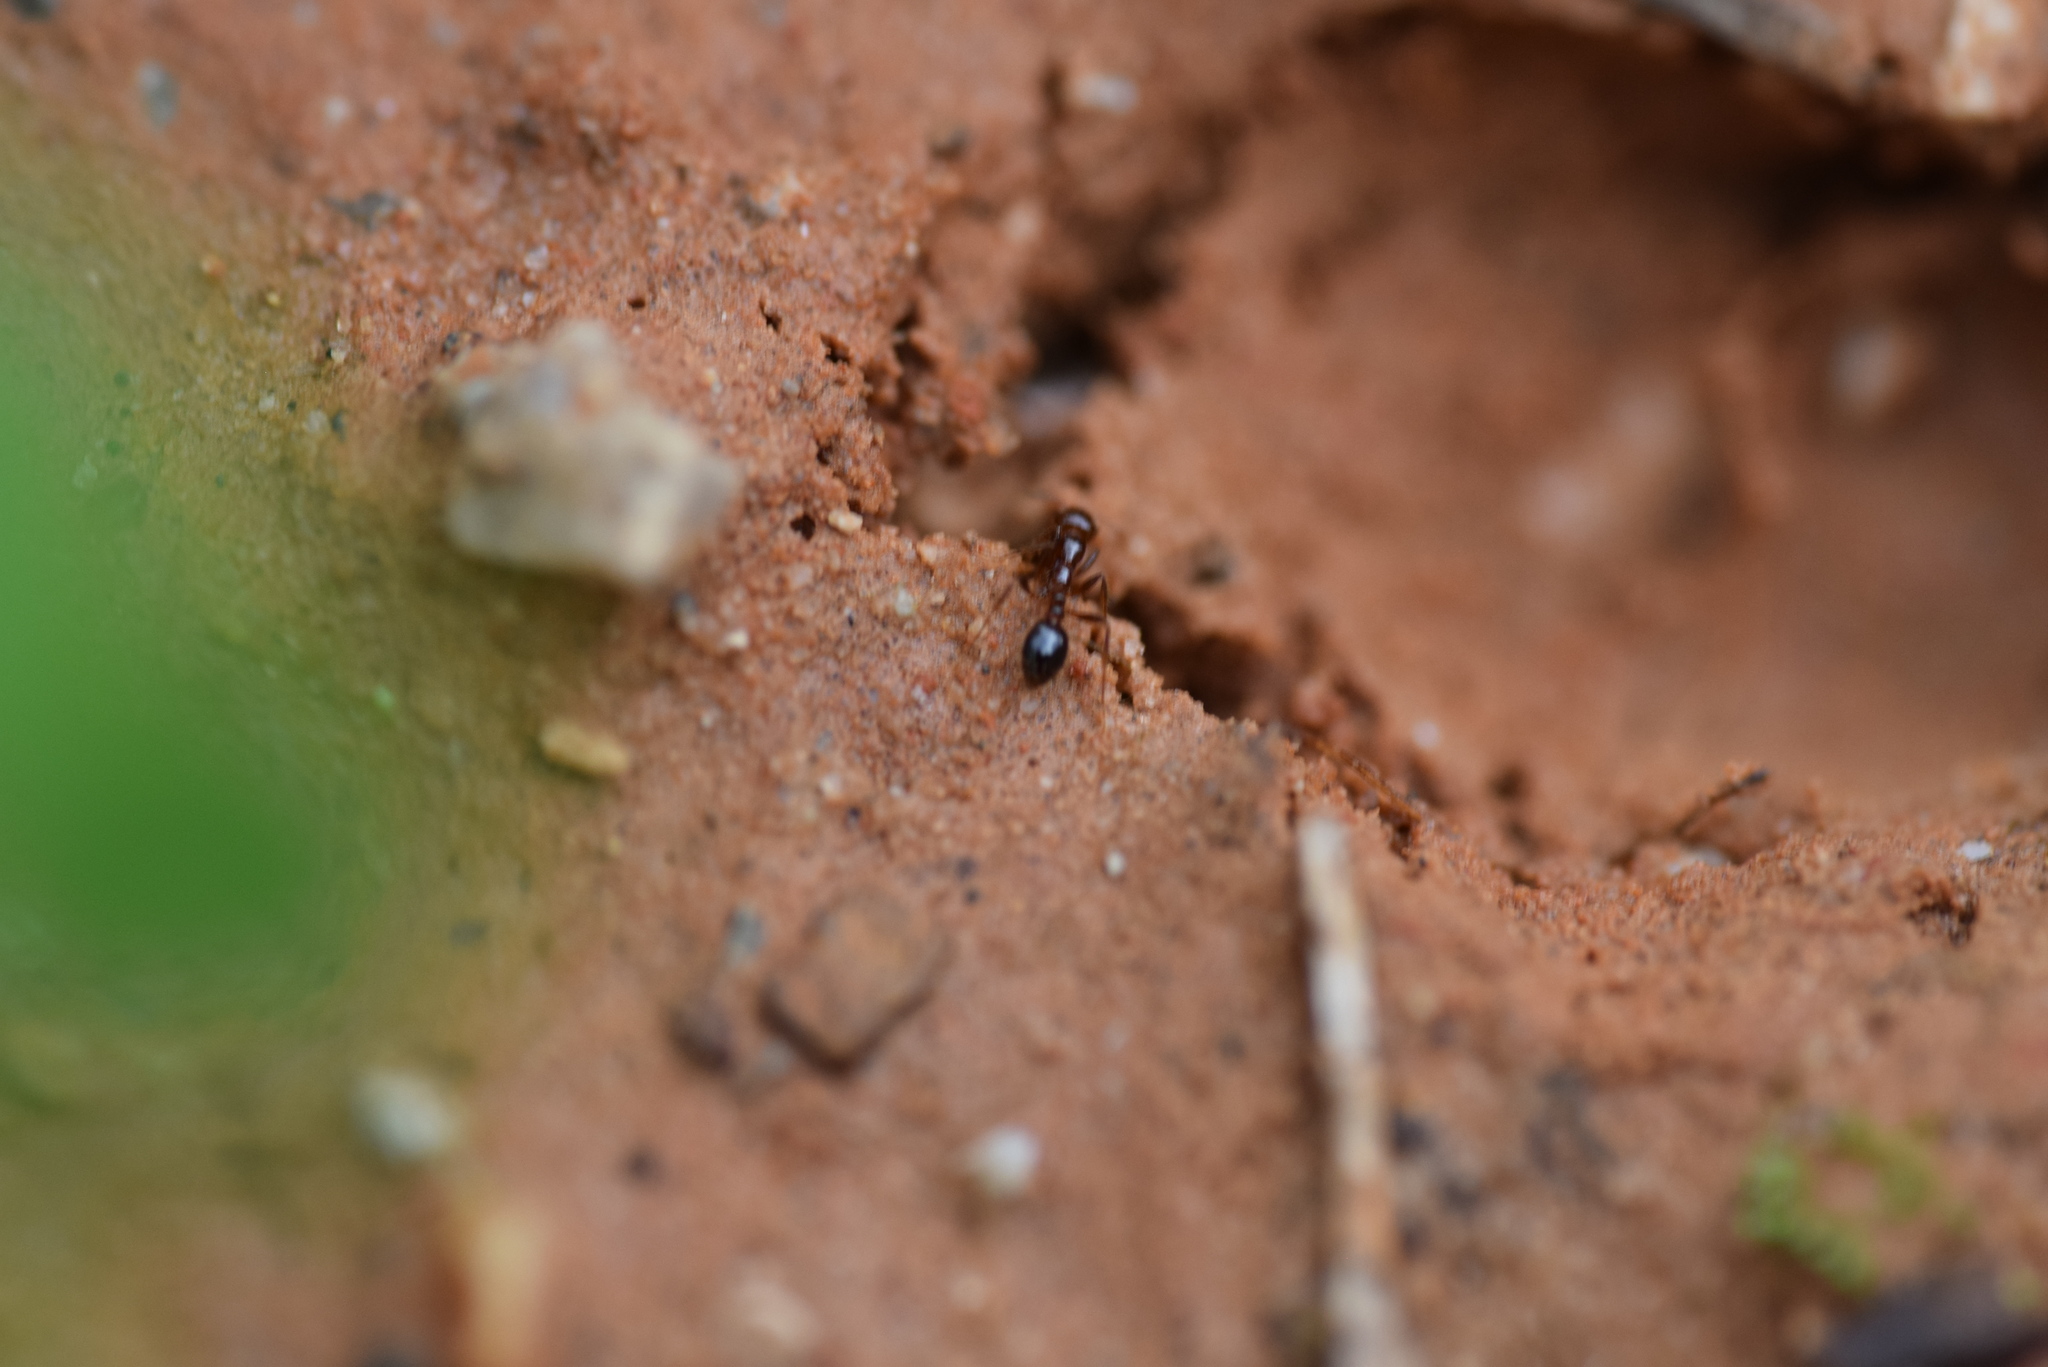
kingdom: Animalia
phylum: Arthropoda
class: Insecta
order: Hymenoptera
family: Formicidae
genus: Solenopsis
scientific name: Solenopsis invicta
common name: Red imported fire ant
